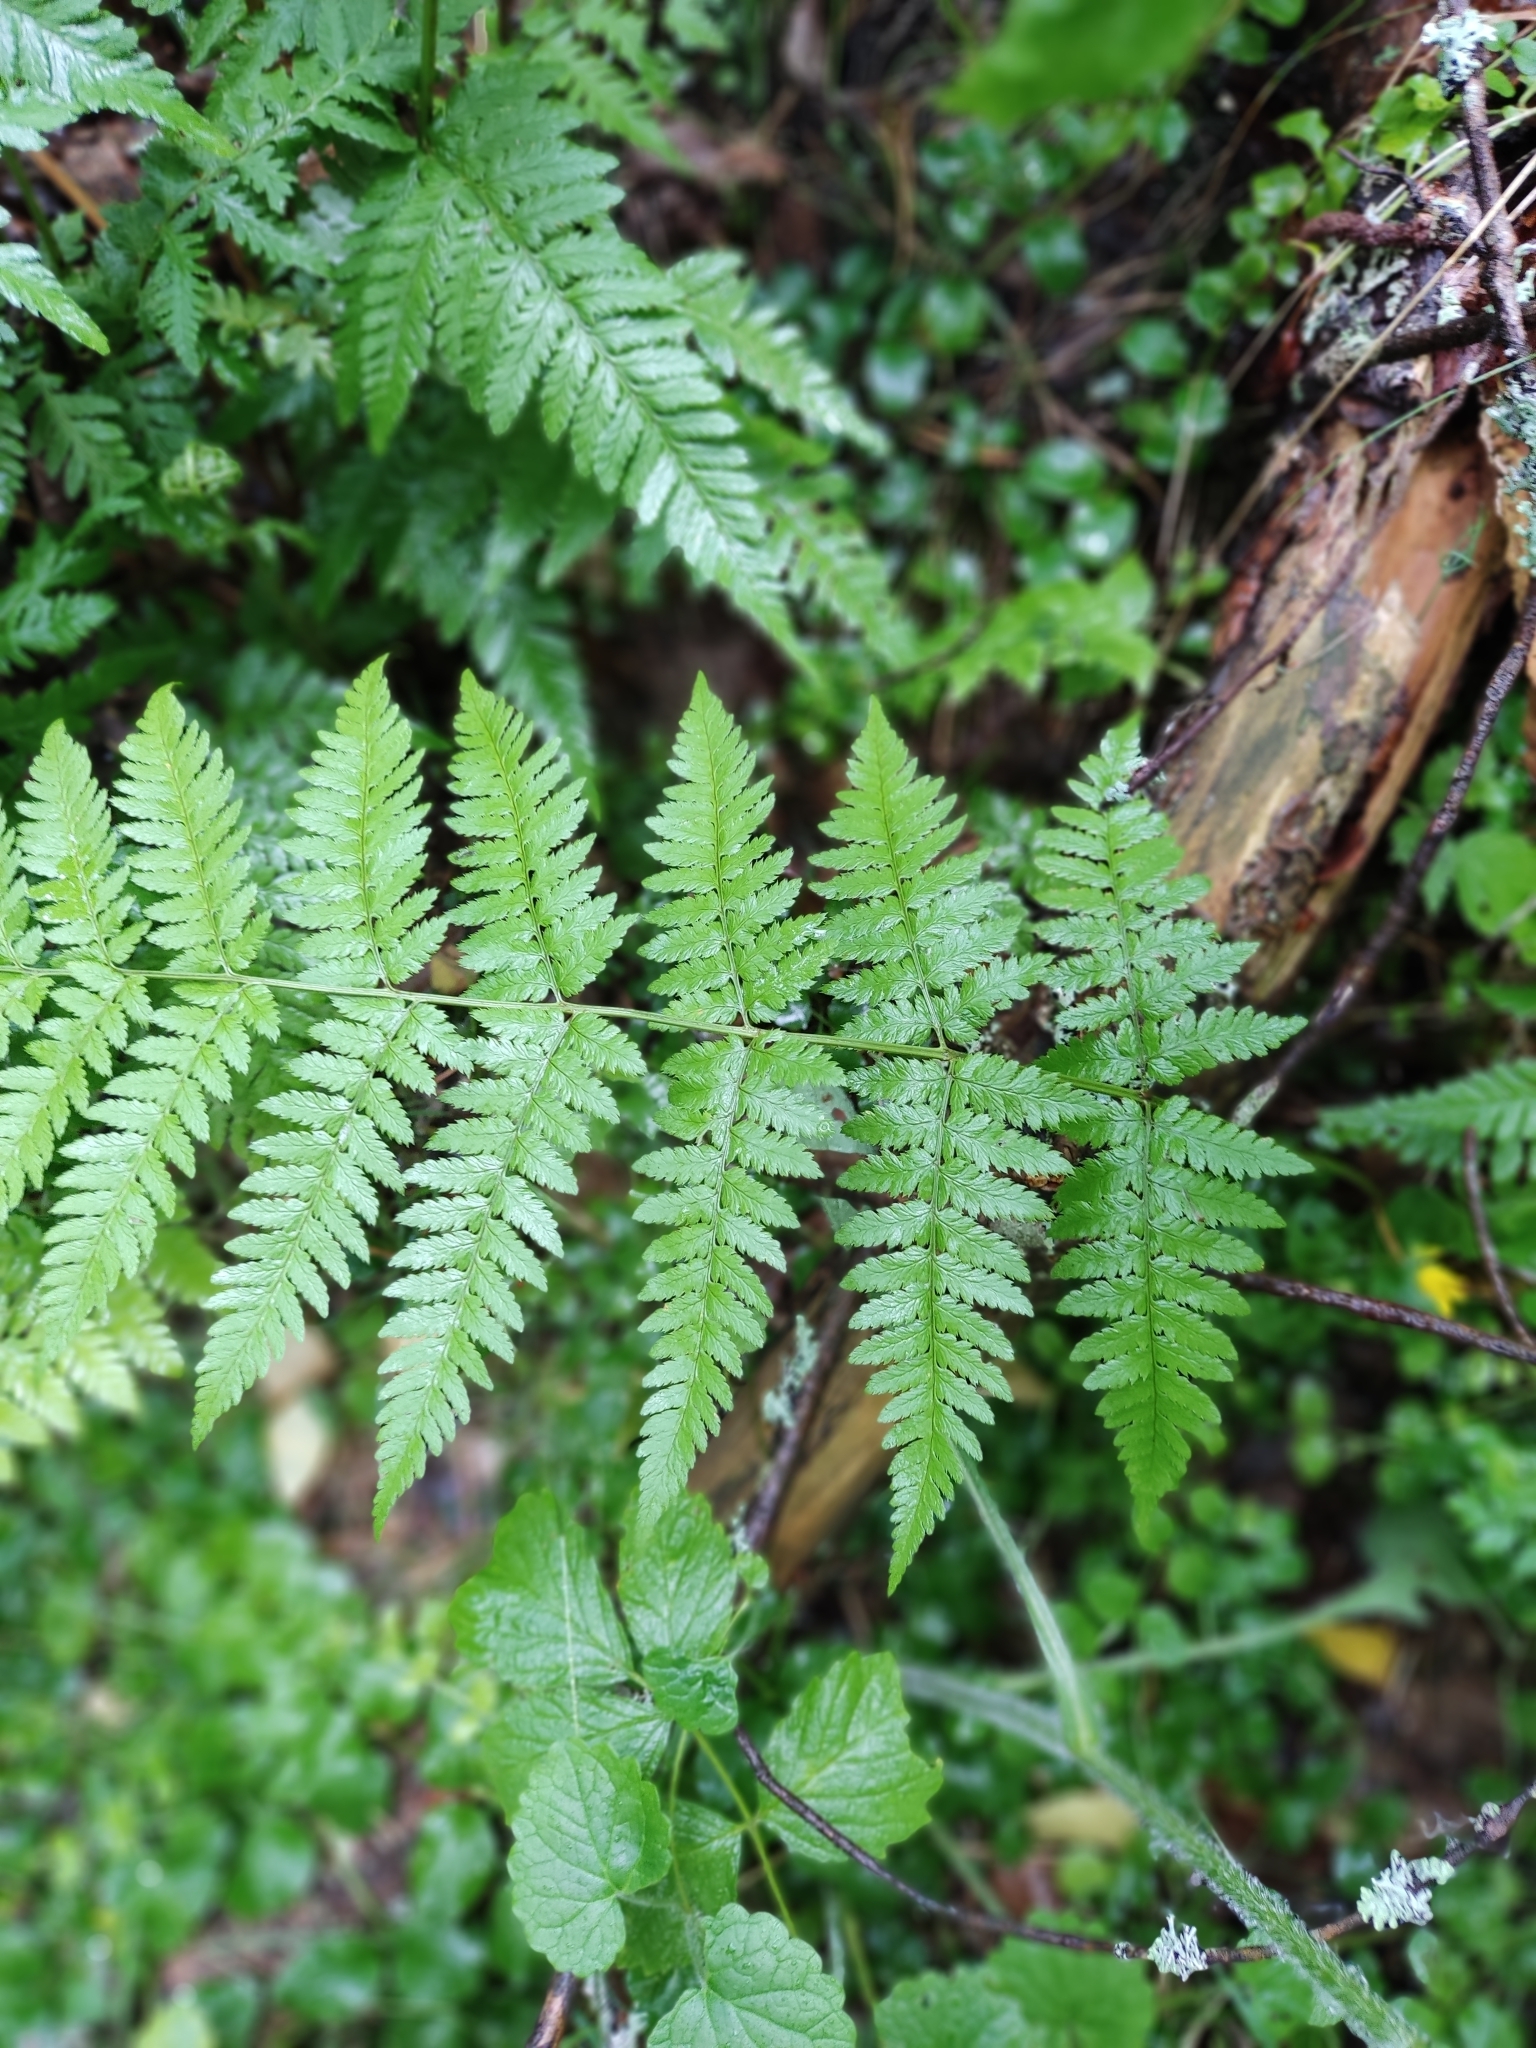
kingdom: Plantae
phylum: Tracheophyta
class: Polypodiopsida
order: Polypodiales
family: Dryopteridaceae
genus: Dryopteris
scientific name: Dryopteris carthusiana
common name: Narrow buckler-fern
